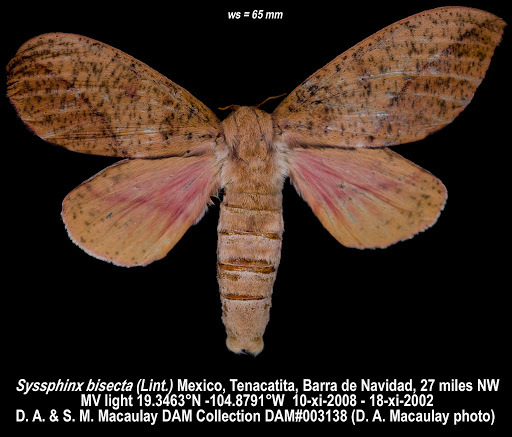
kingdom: Animalia
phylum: Arthropoda
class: Insecta
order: Lepidoptera
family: Saturniidae
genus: Adeloneivaia
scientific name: Adeloneivaia isara
